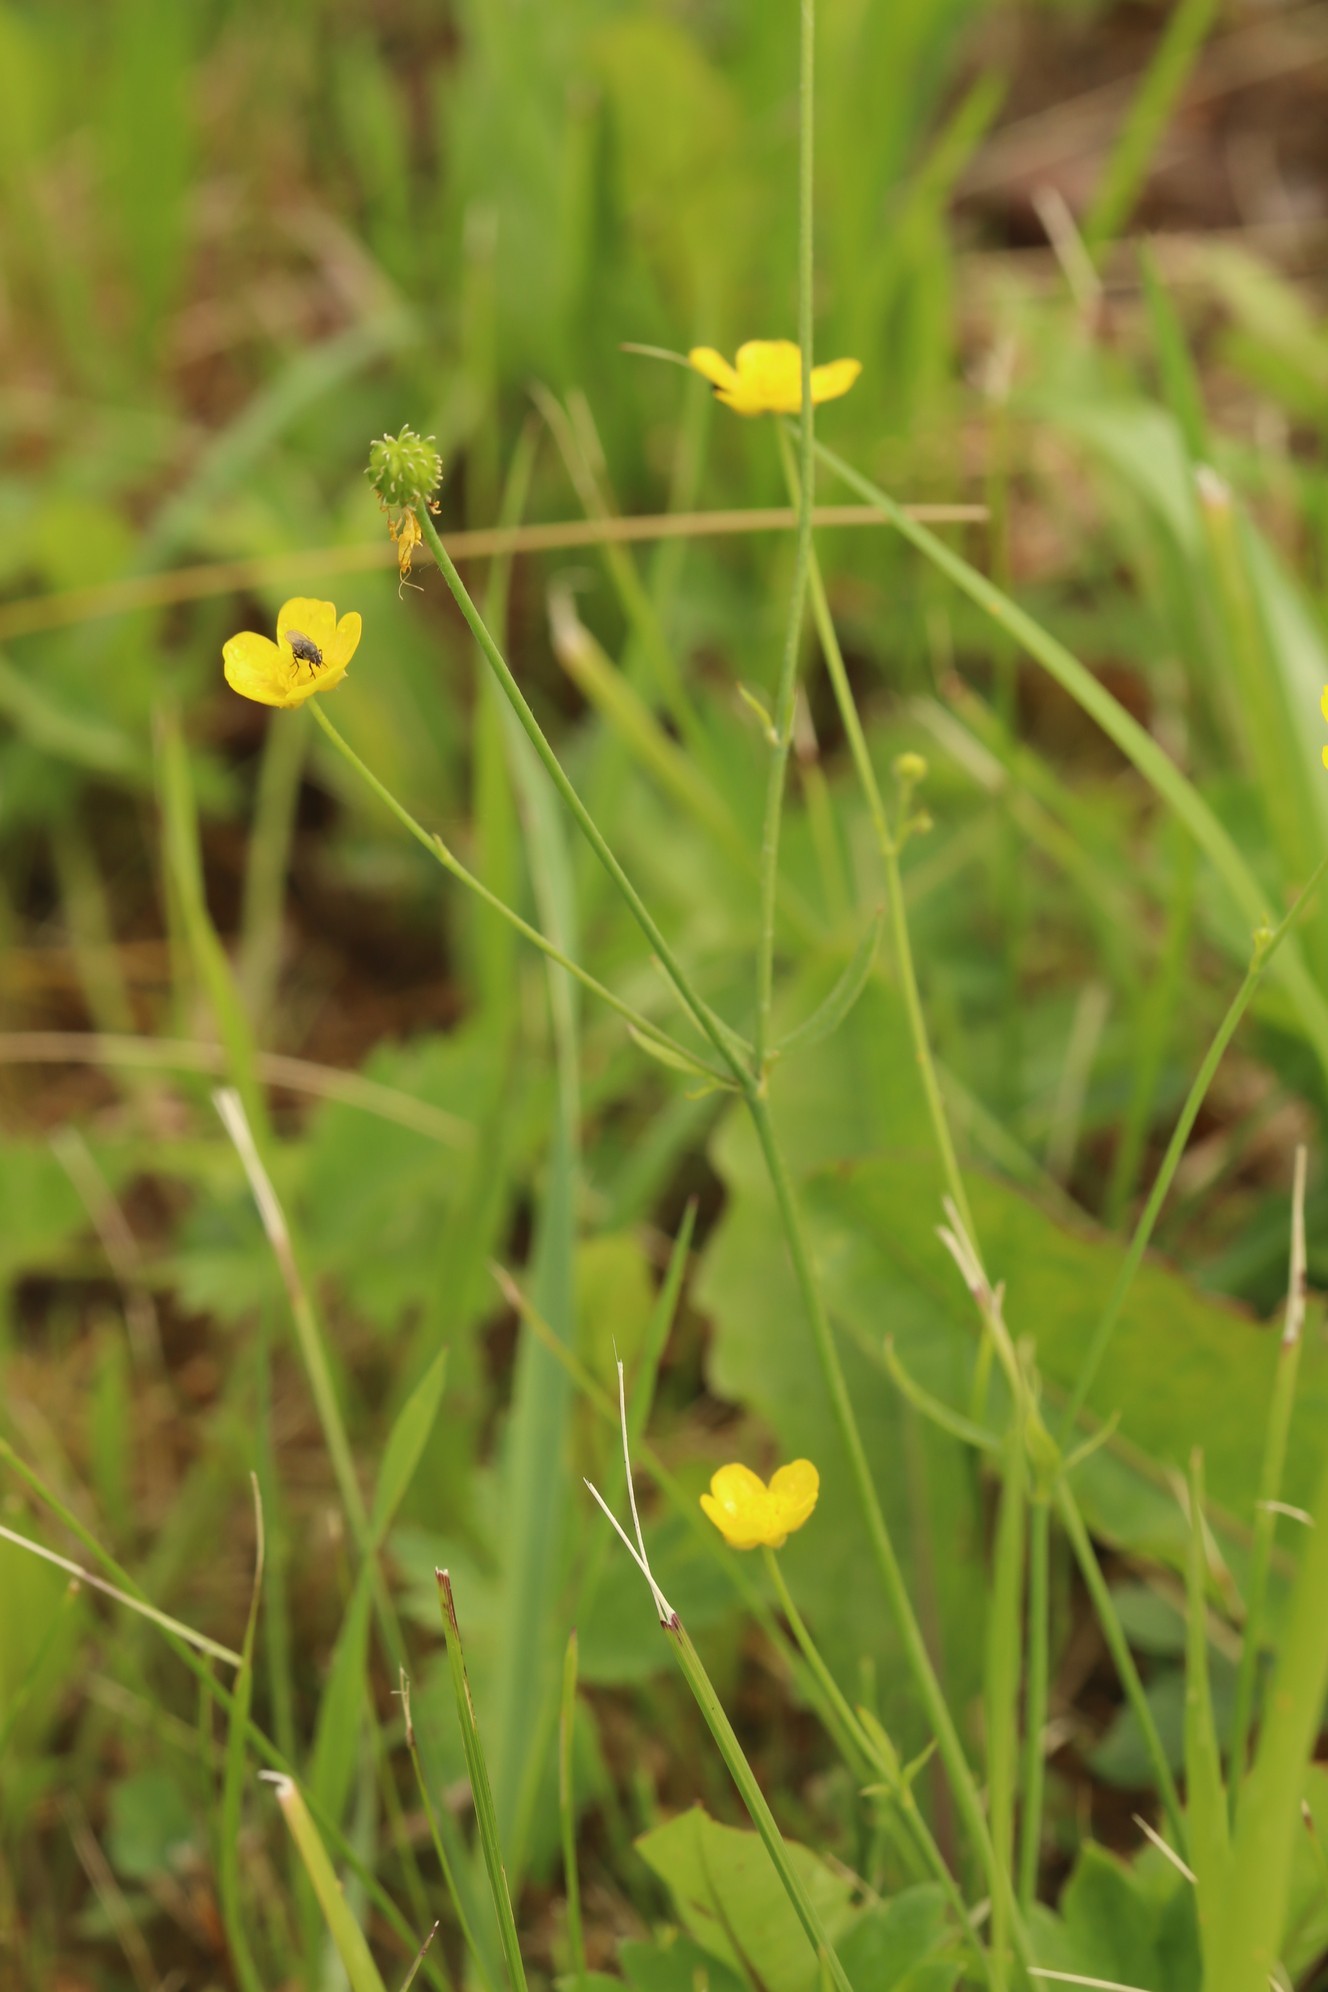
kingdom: Plantae
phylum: Tracheophyta
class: Magnoliopsida
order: Ranunculales
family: Ranunculaceae
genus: Ranunculus
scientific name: Ranunculus propinquus
